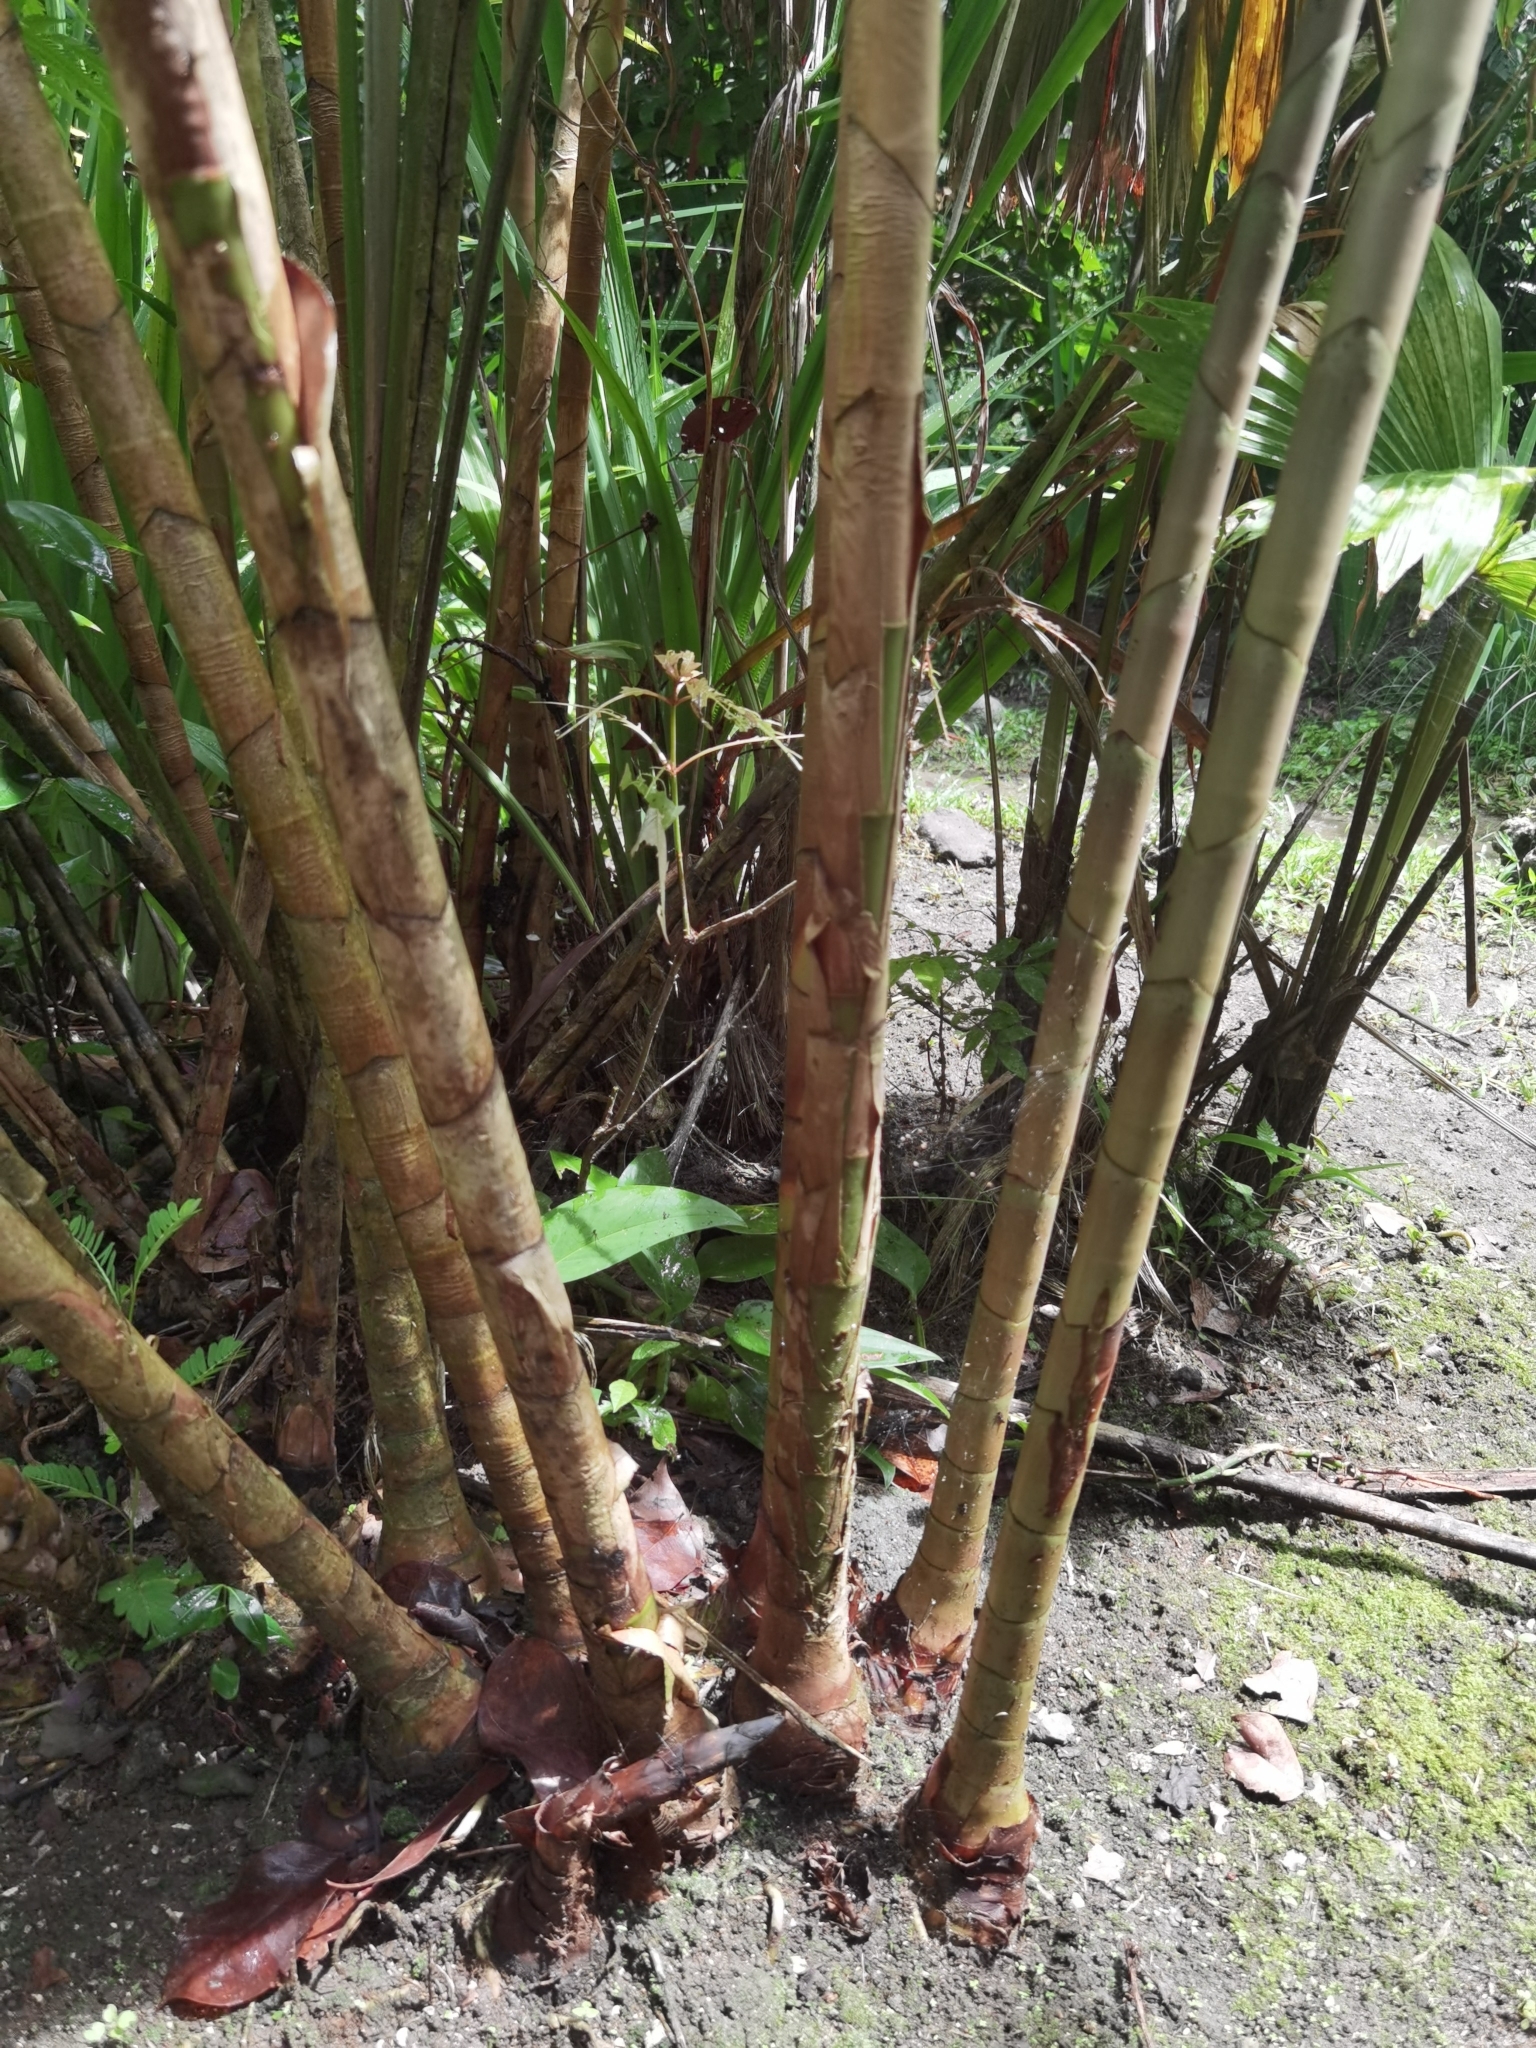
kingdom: Plantae
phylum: Tracheophyta
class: Liliopsida
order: Zingiberales
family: Costaceae
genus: Costus
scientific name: Costus lima
